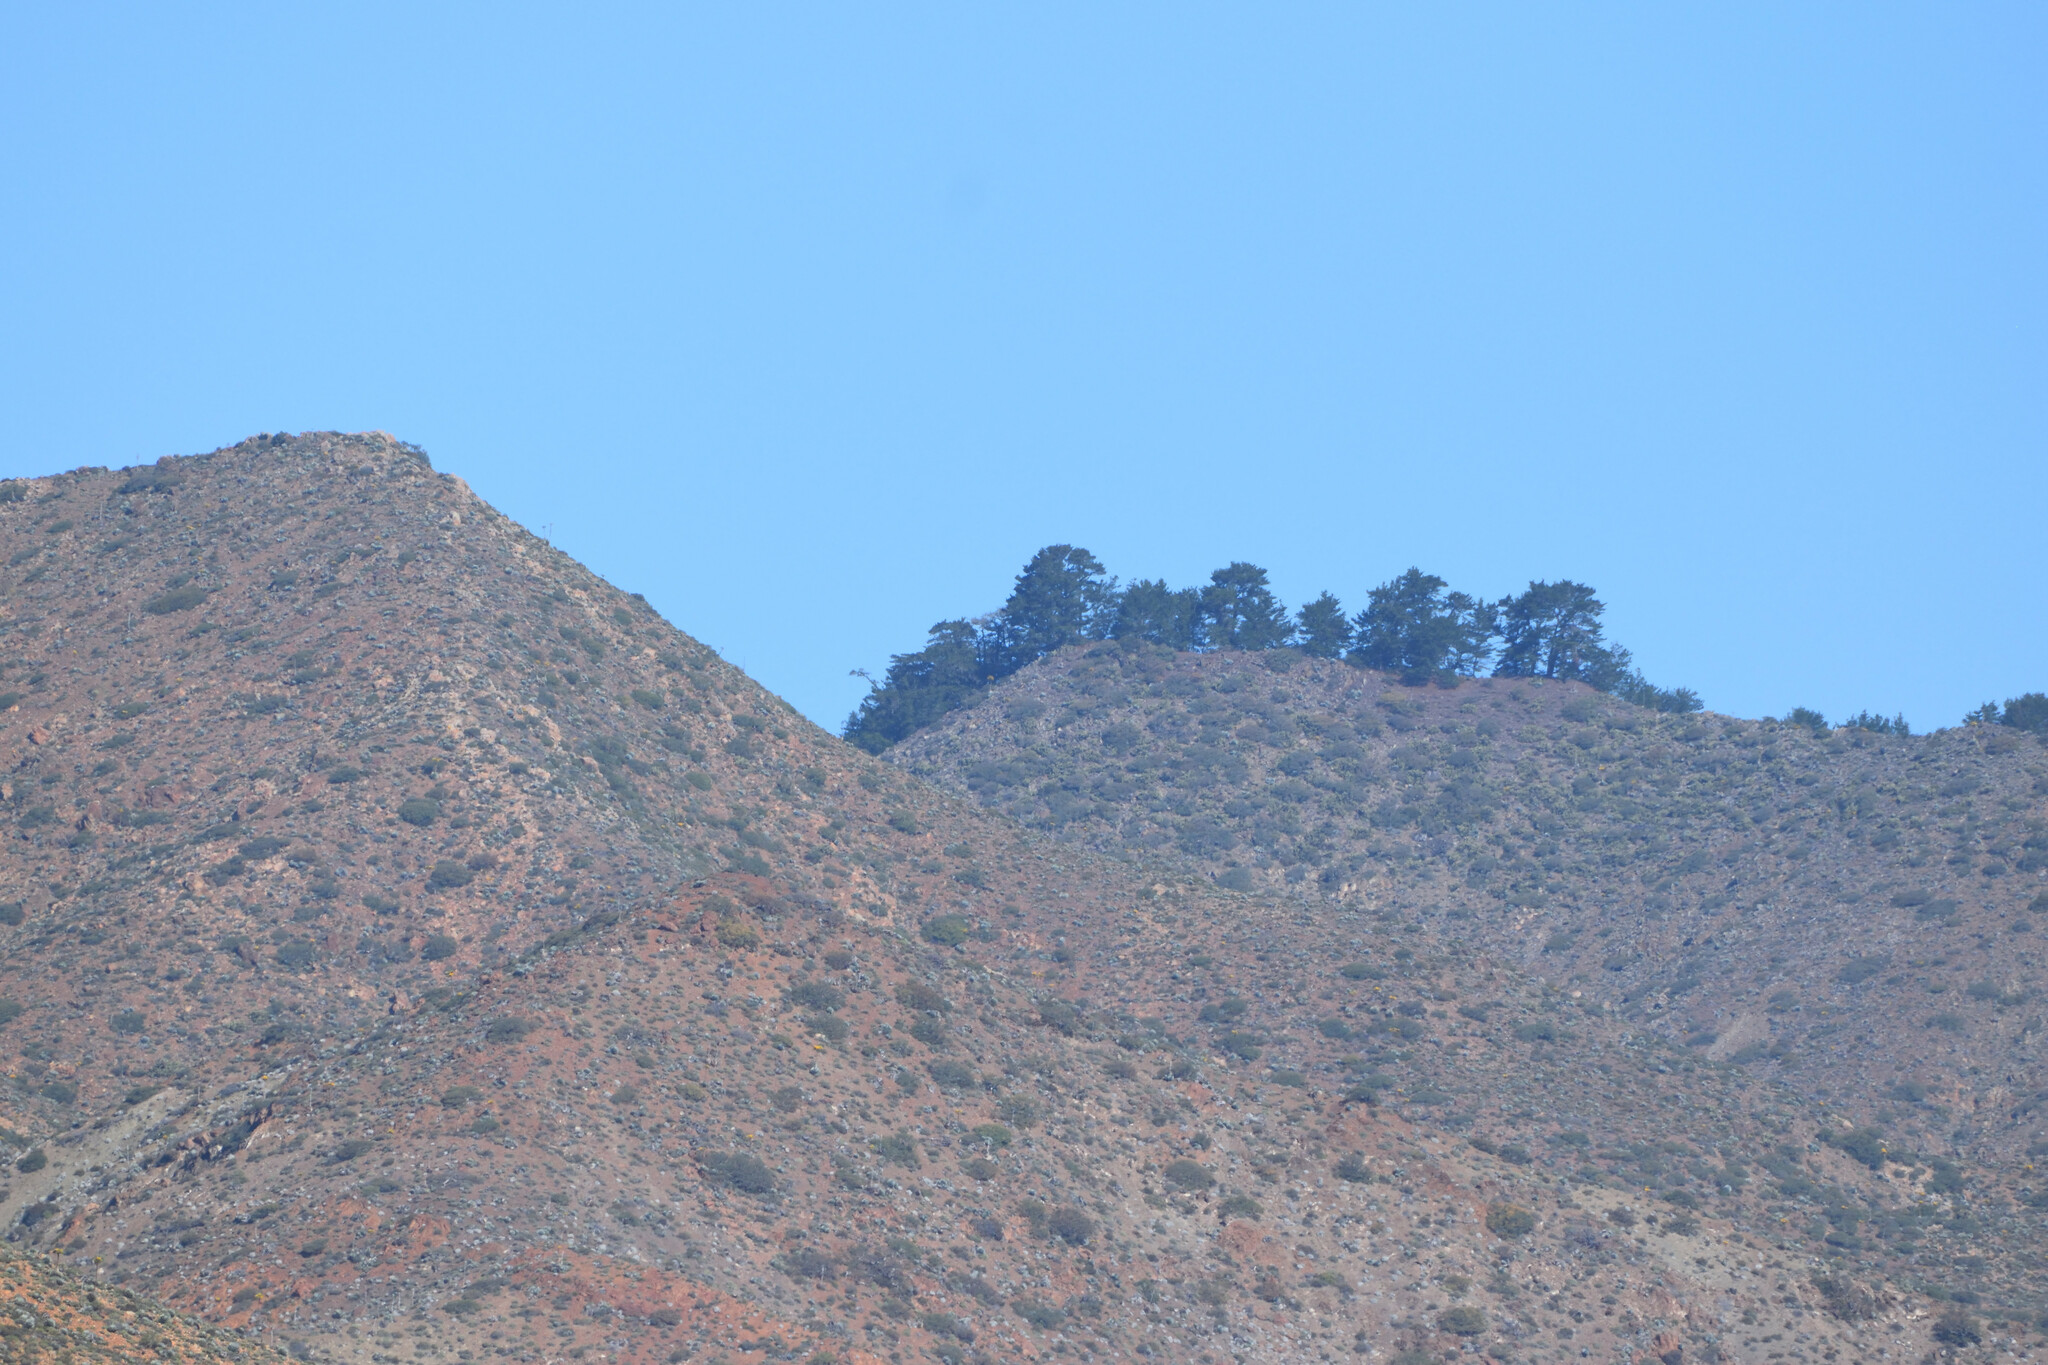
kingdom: Plantae
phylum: Tracheophyta
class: Pinopsida
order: Pinales
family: Pinaceae
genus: Pinus
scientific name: Pinus radiata
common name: Monterey pine
